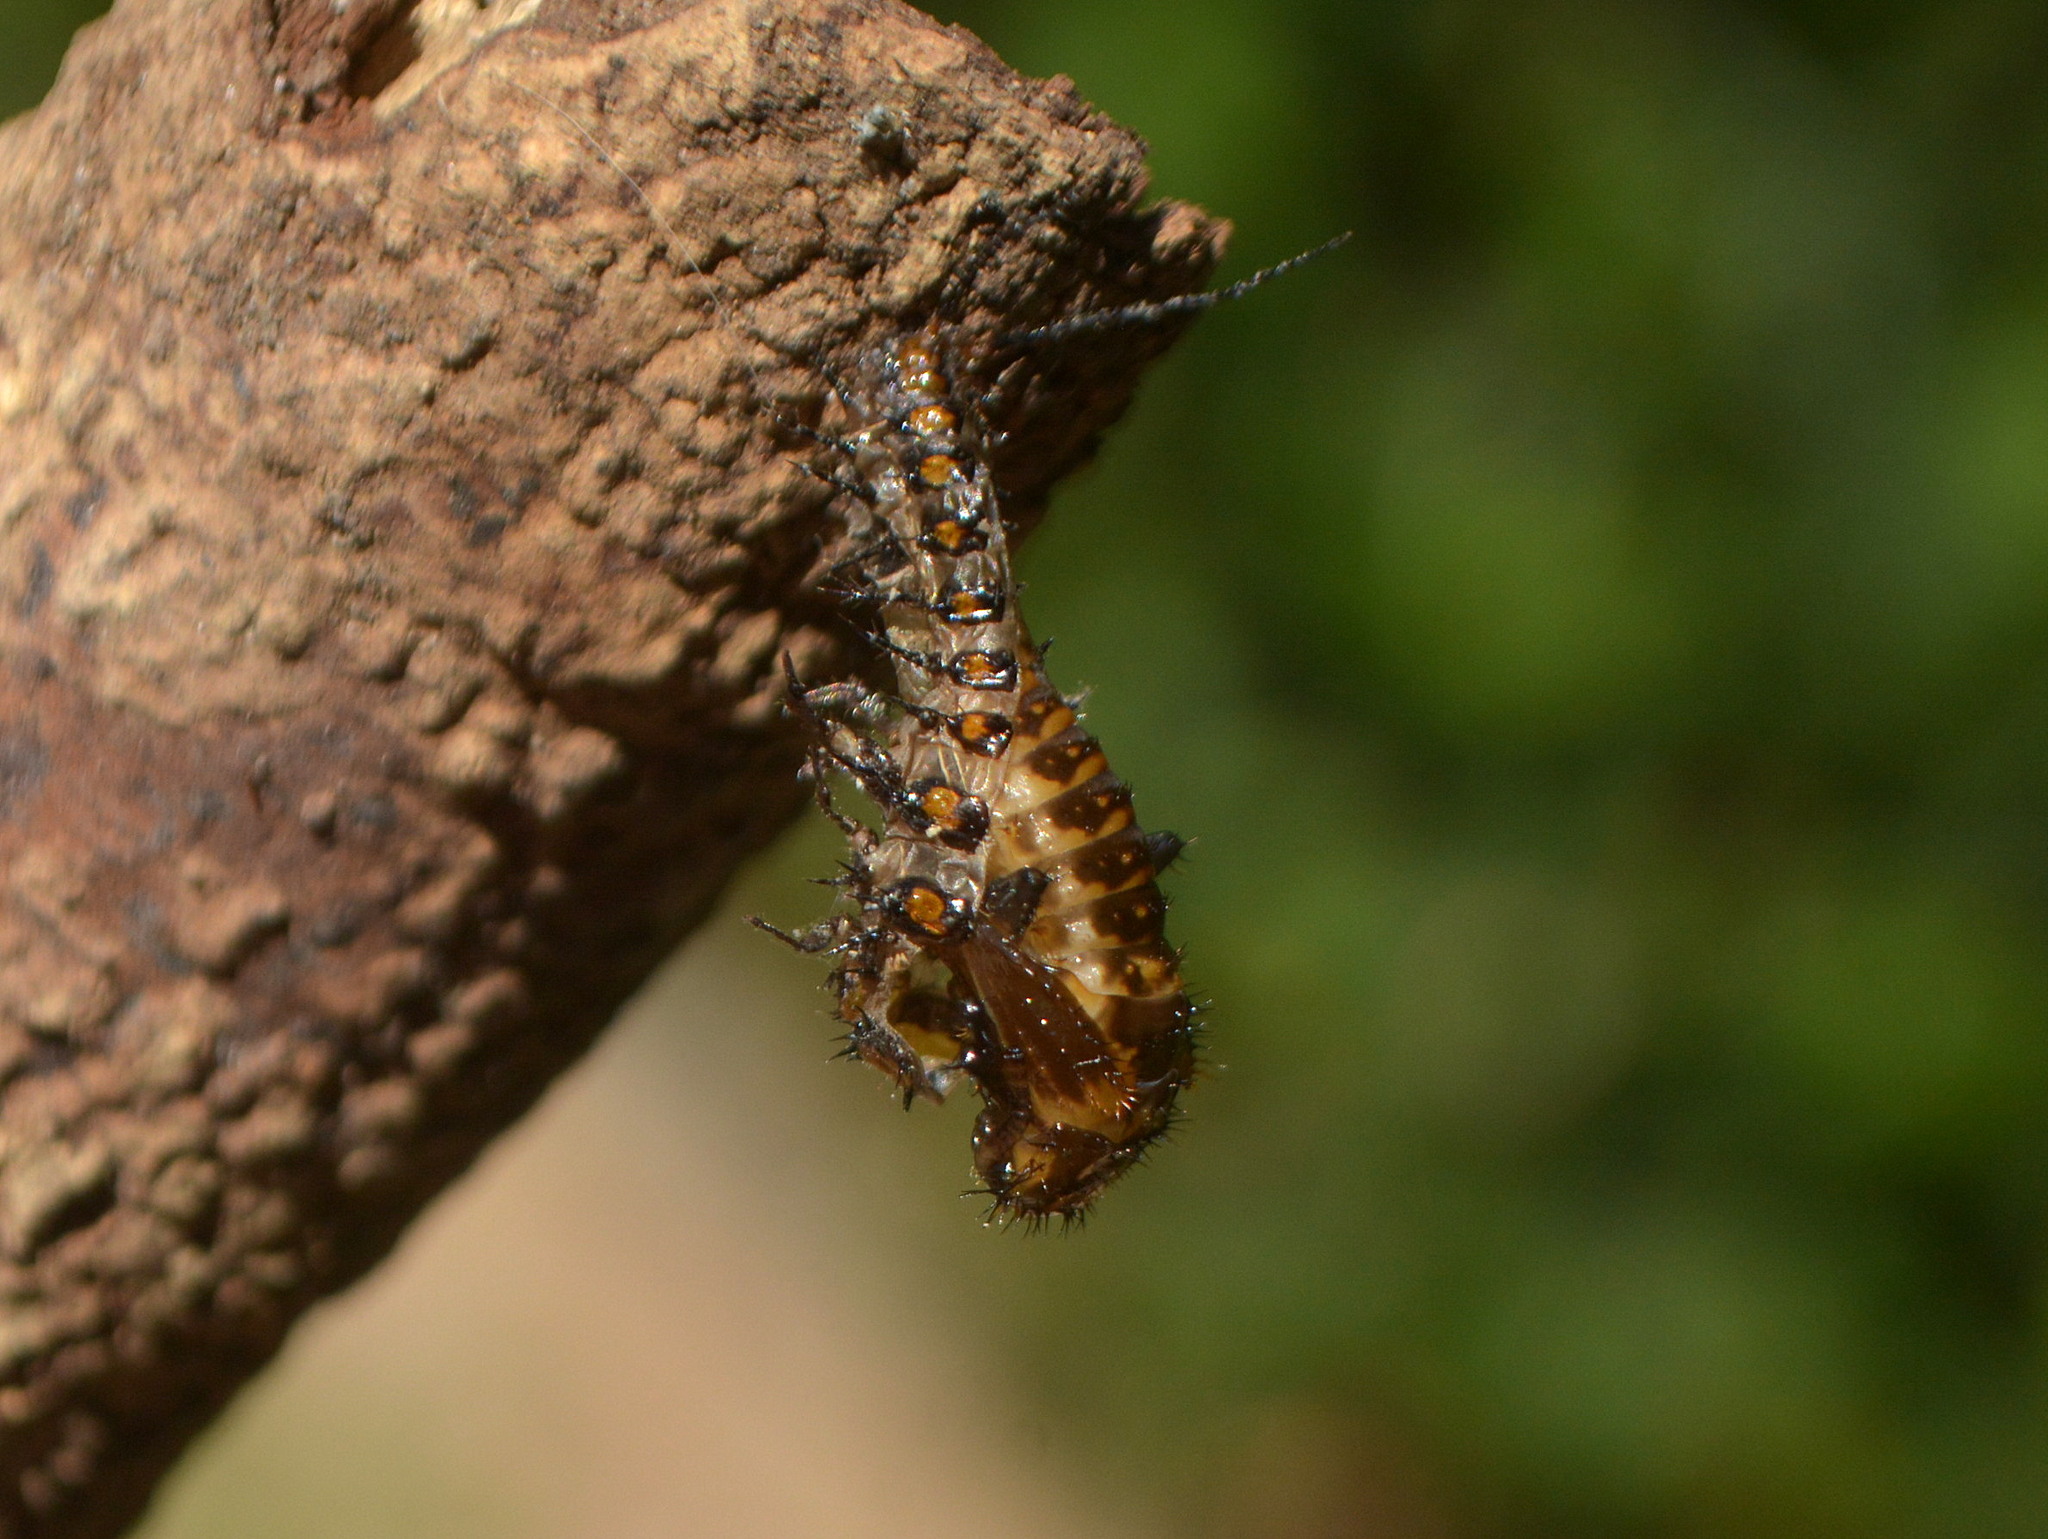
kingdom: Animalia
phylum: Arthropoda
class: Insecta
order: Coleoptera
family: Erotylidae
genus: Gibbifer
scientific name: Gibbifer
